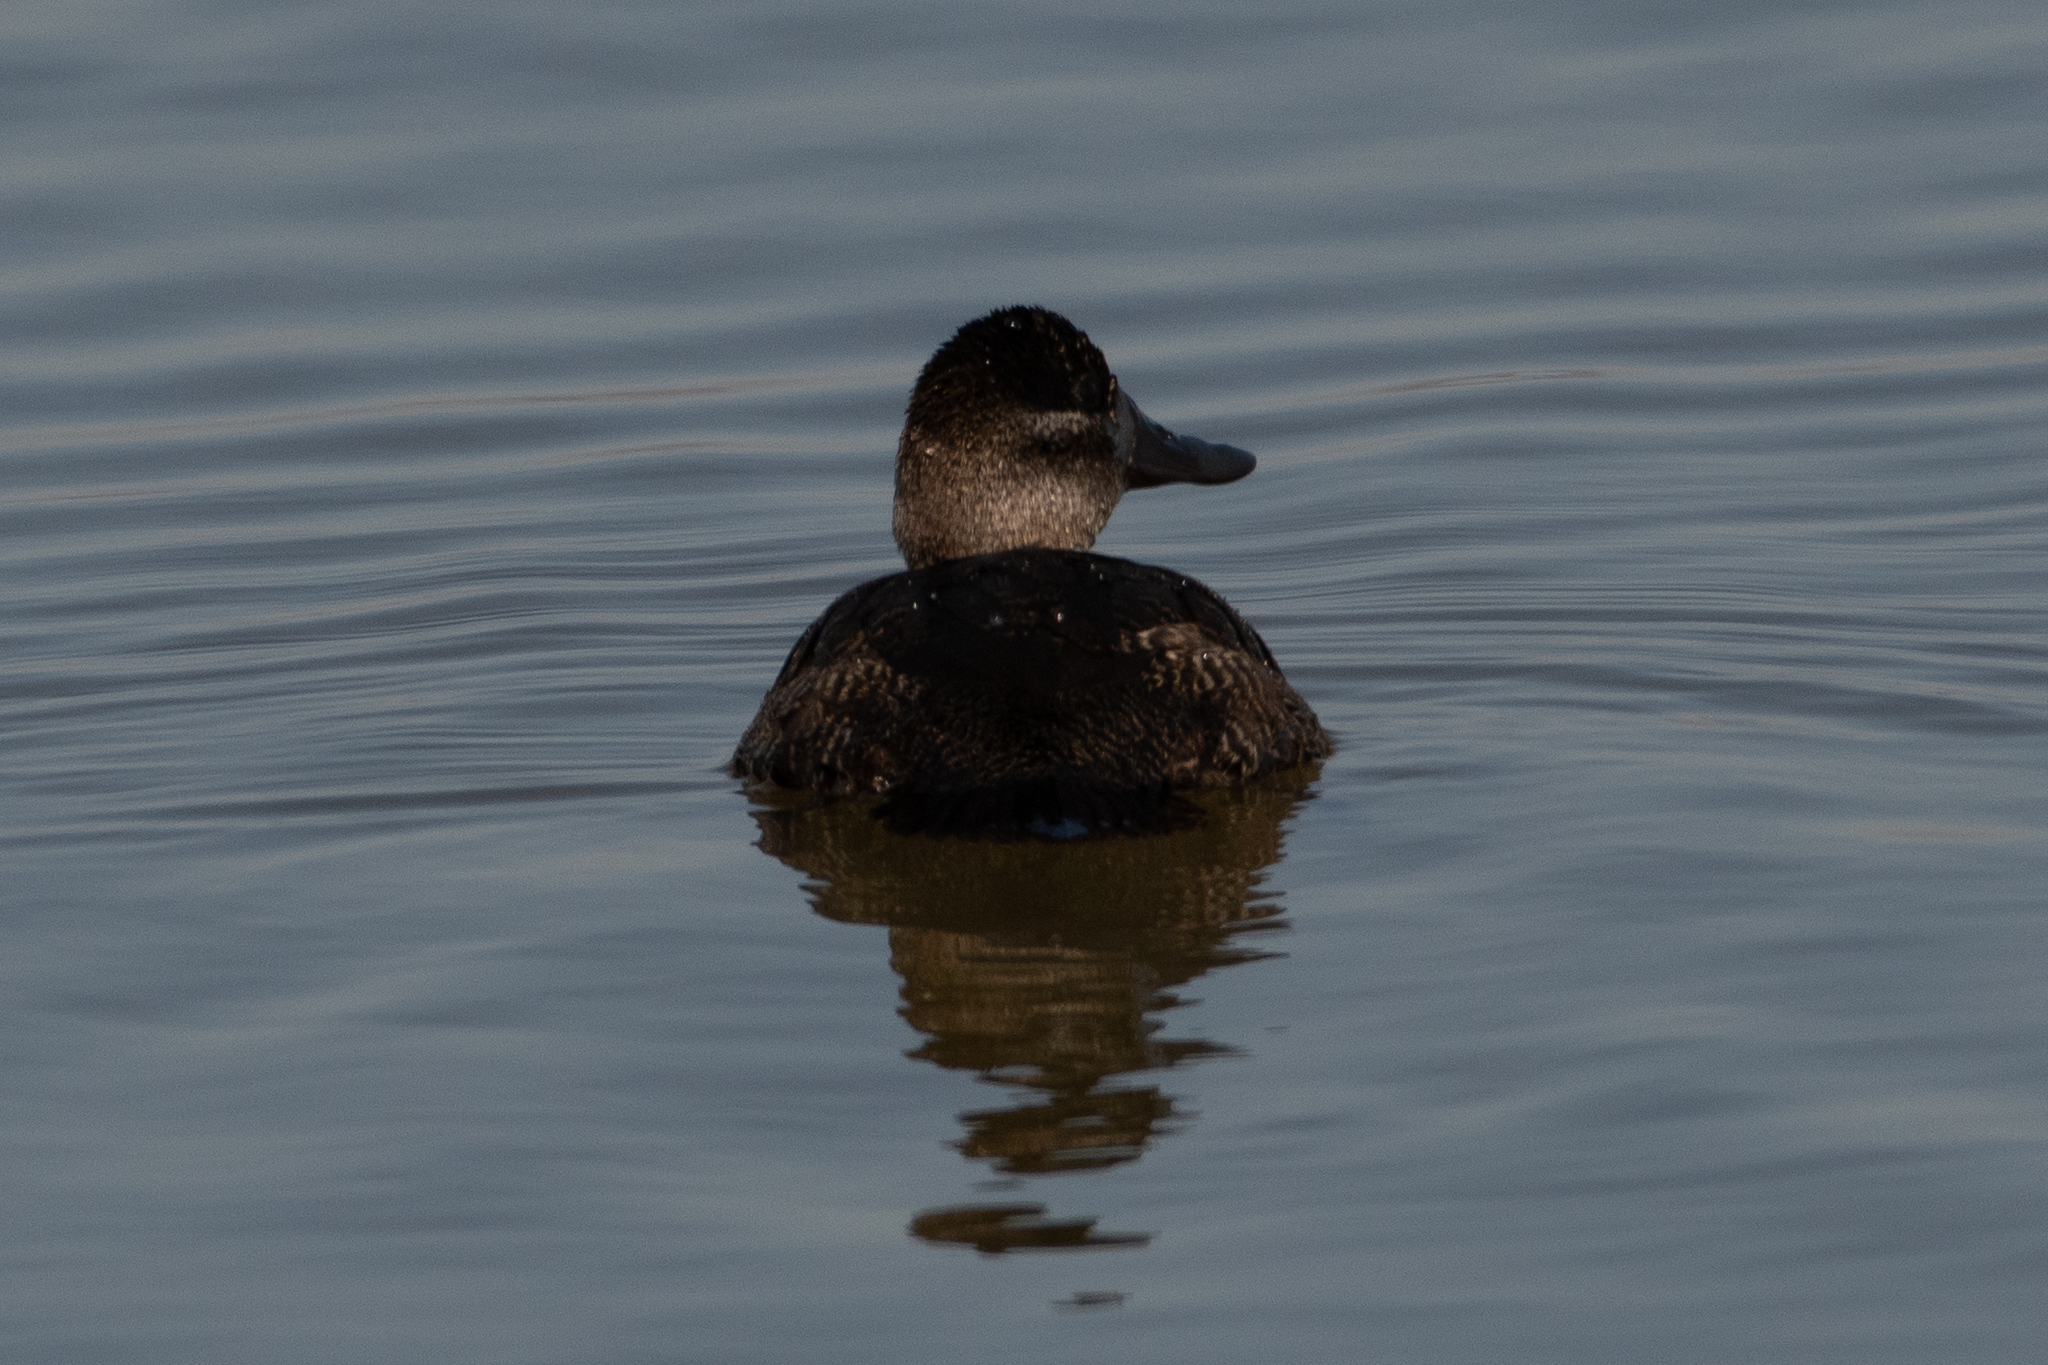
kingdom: Animalia
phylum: Chordata
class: Aves
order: Anseriformes
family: Anatidae
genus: Oxyura
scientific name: Oxyura jamaicensis
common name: Ruddy duck
